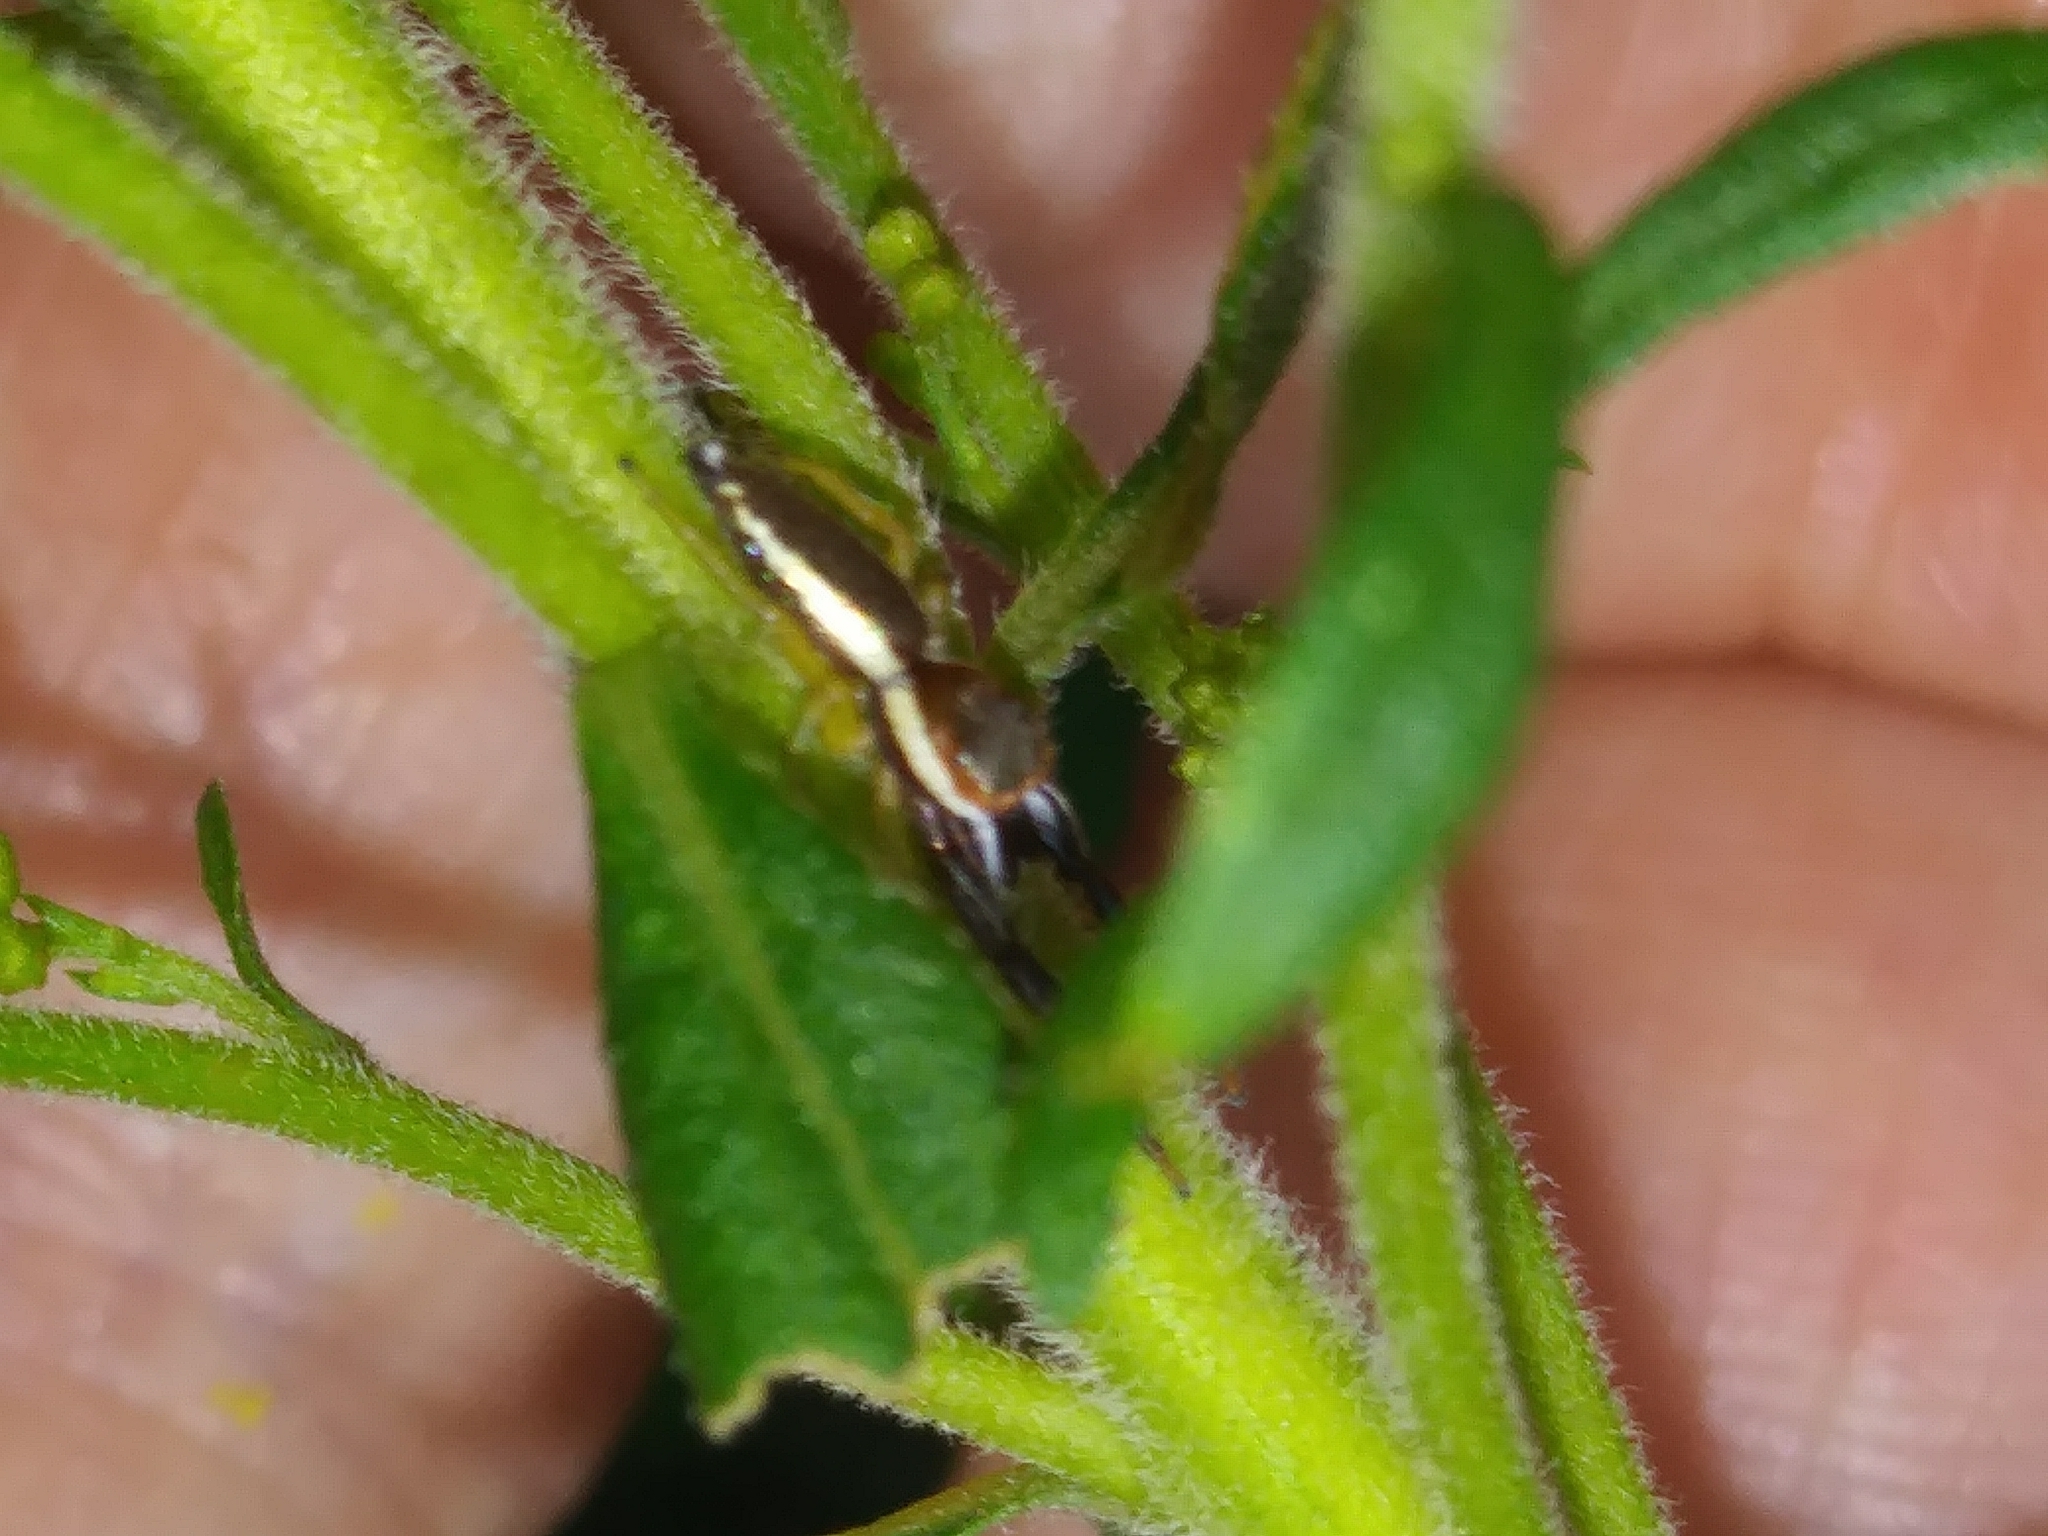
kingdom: Animalia
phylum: Arthropoda
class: Arachnida
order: Araneae
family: Salticidae
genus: Hentzia
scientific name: Hentzia palmarum
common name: Common hentz jumping spider
